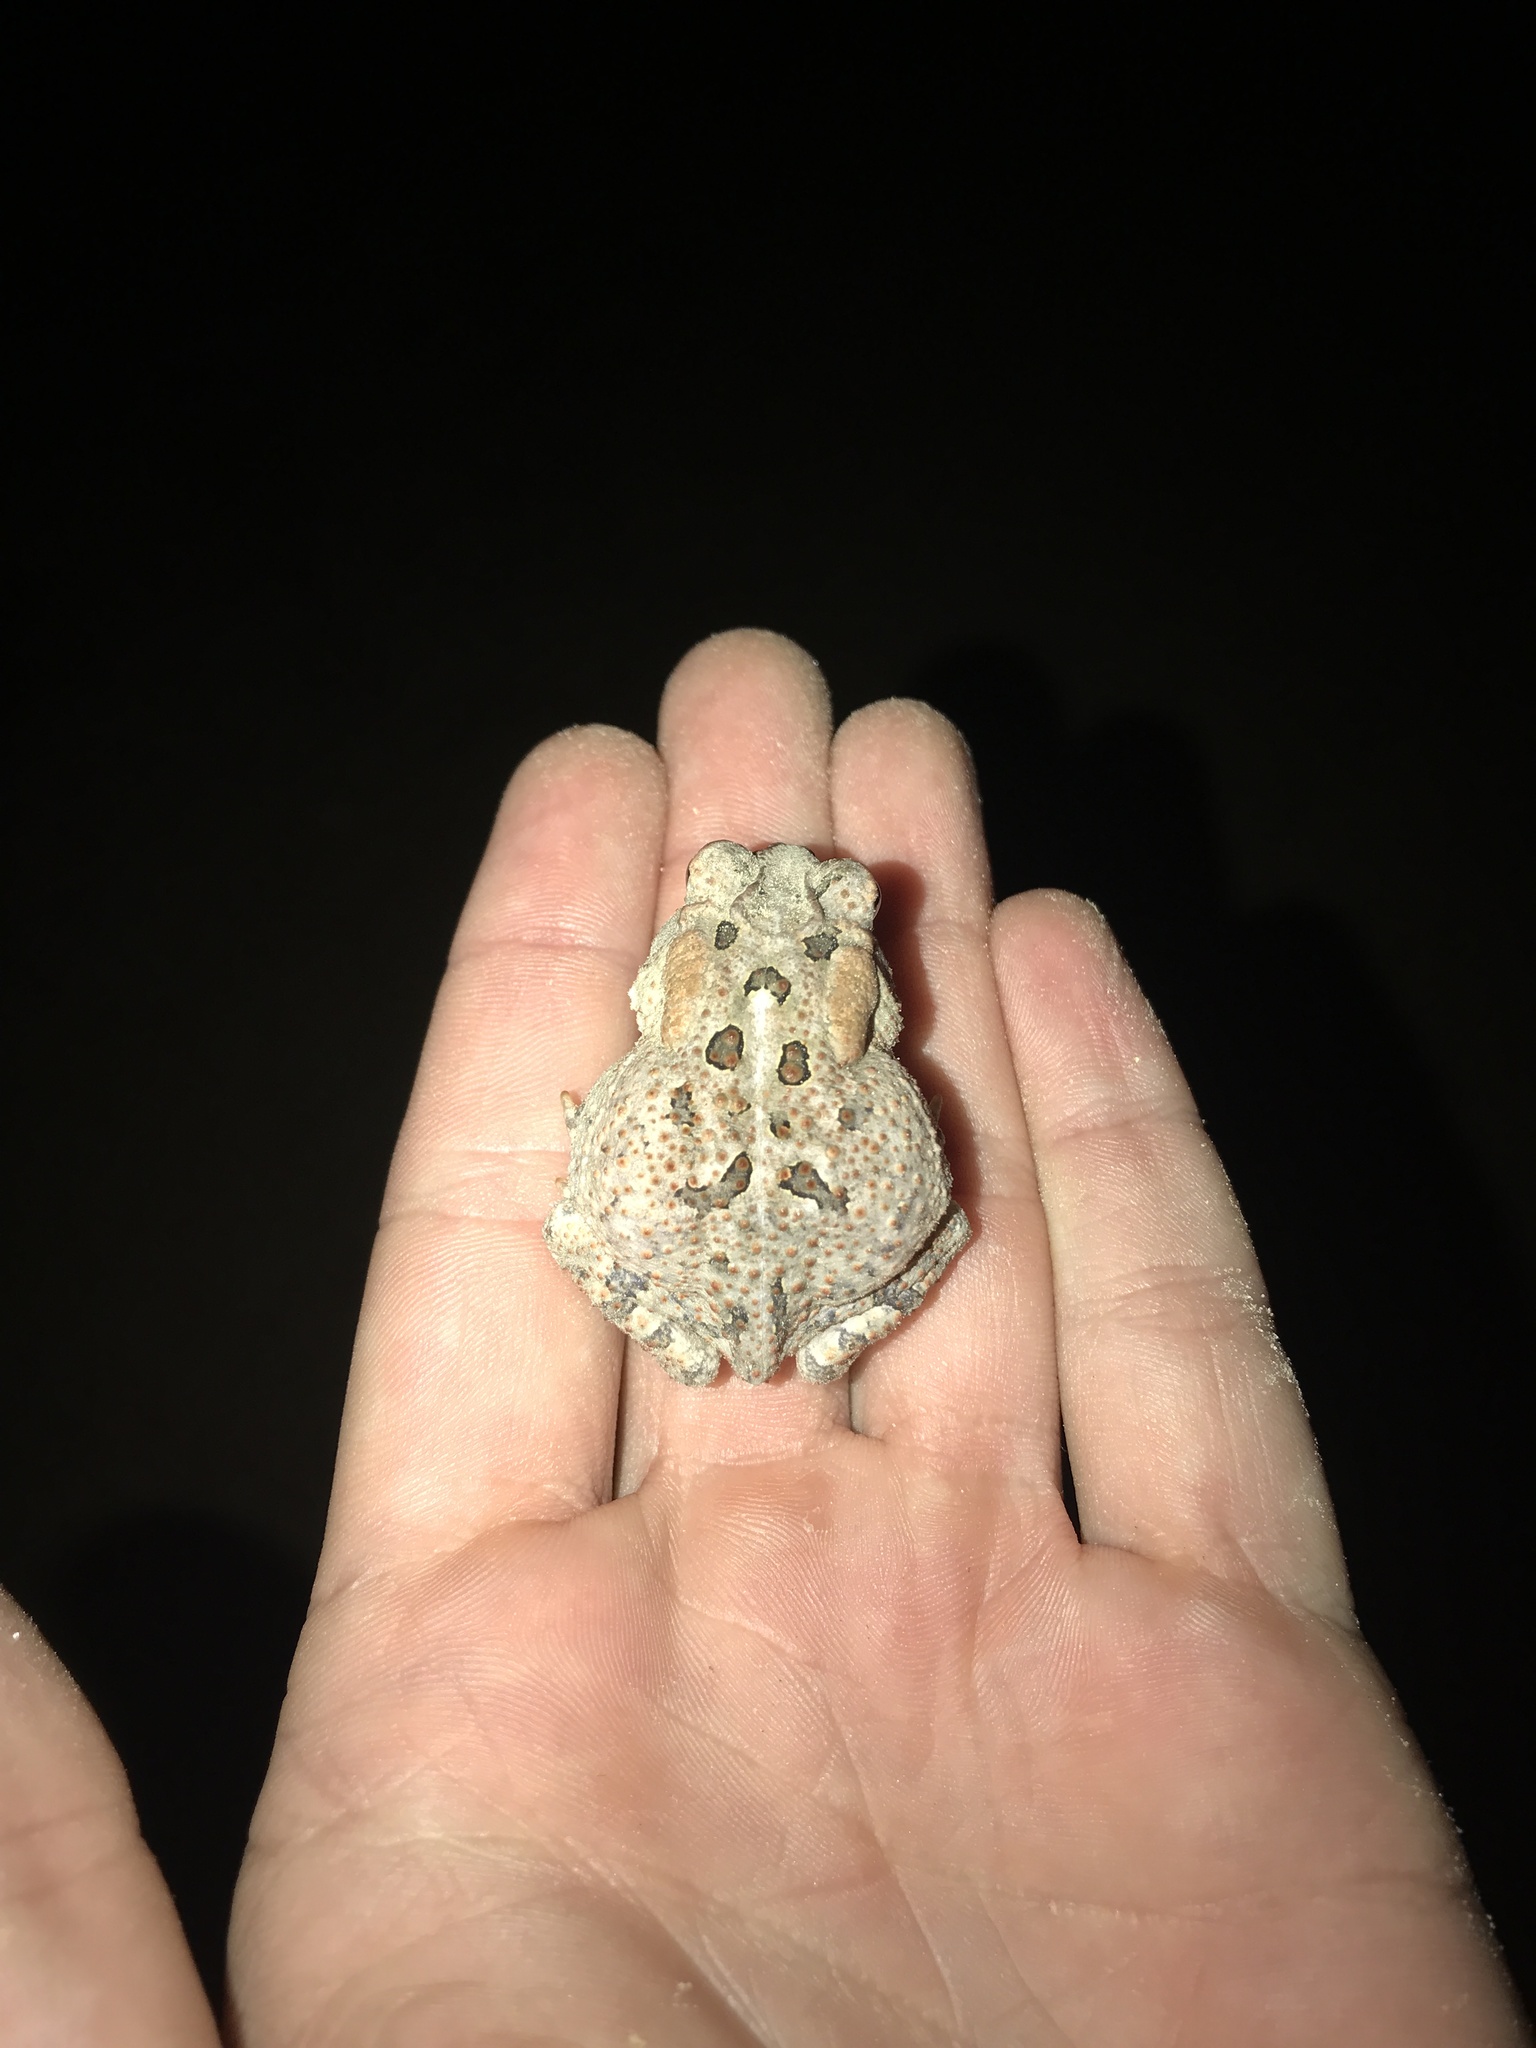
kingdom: Animalia
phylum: Chordata
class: Amphibia
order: Anura
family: Bufonidae
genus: Anaxyrus
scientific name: Anaxyrus terrestris
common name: Southern toad
